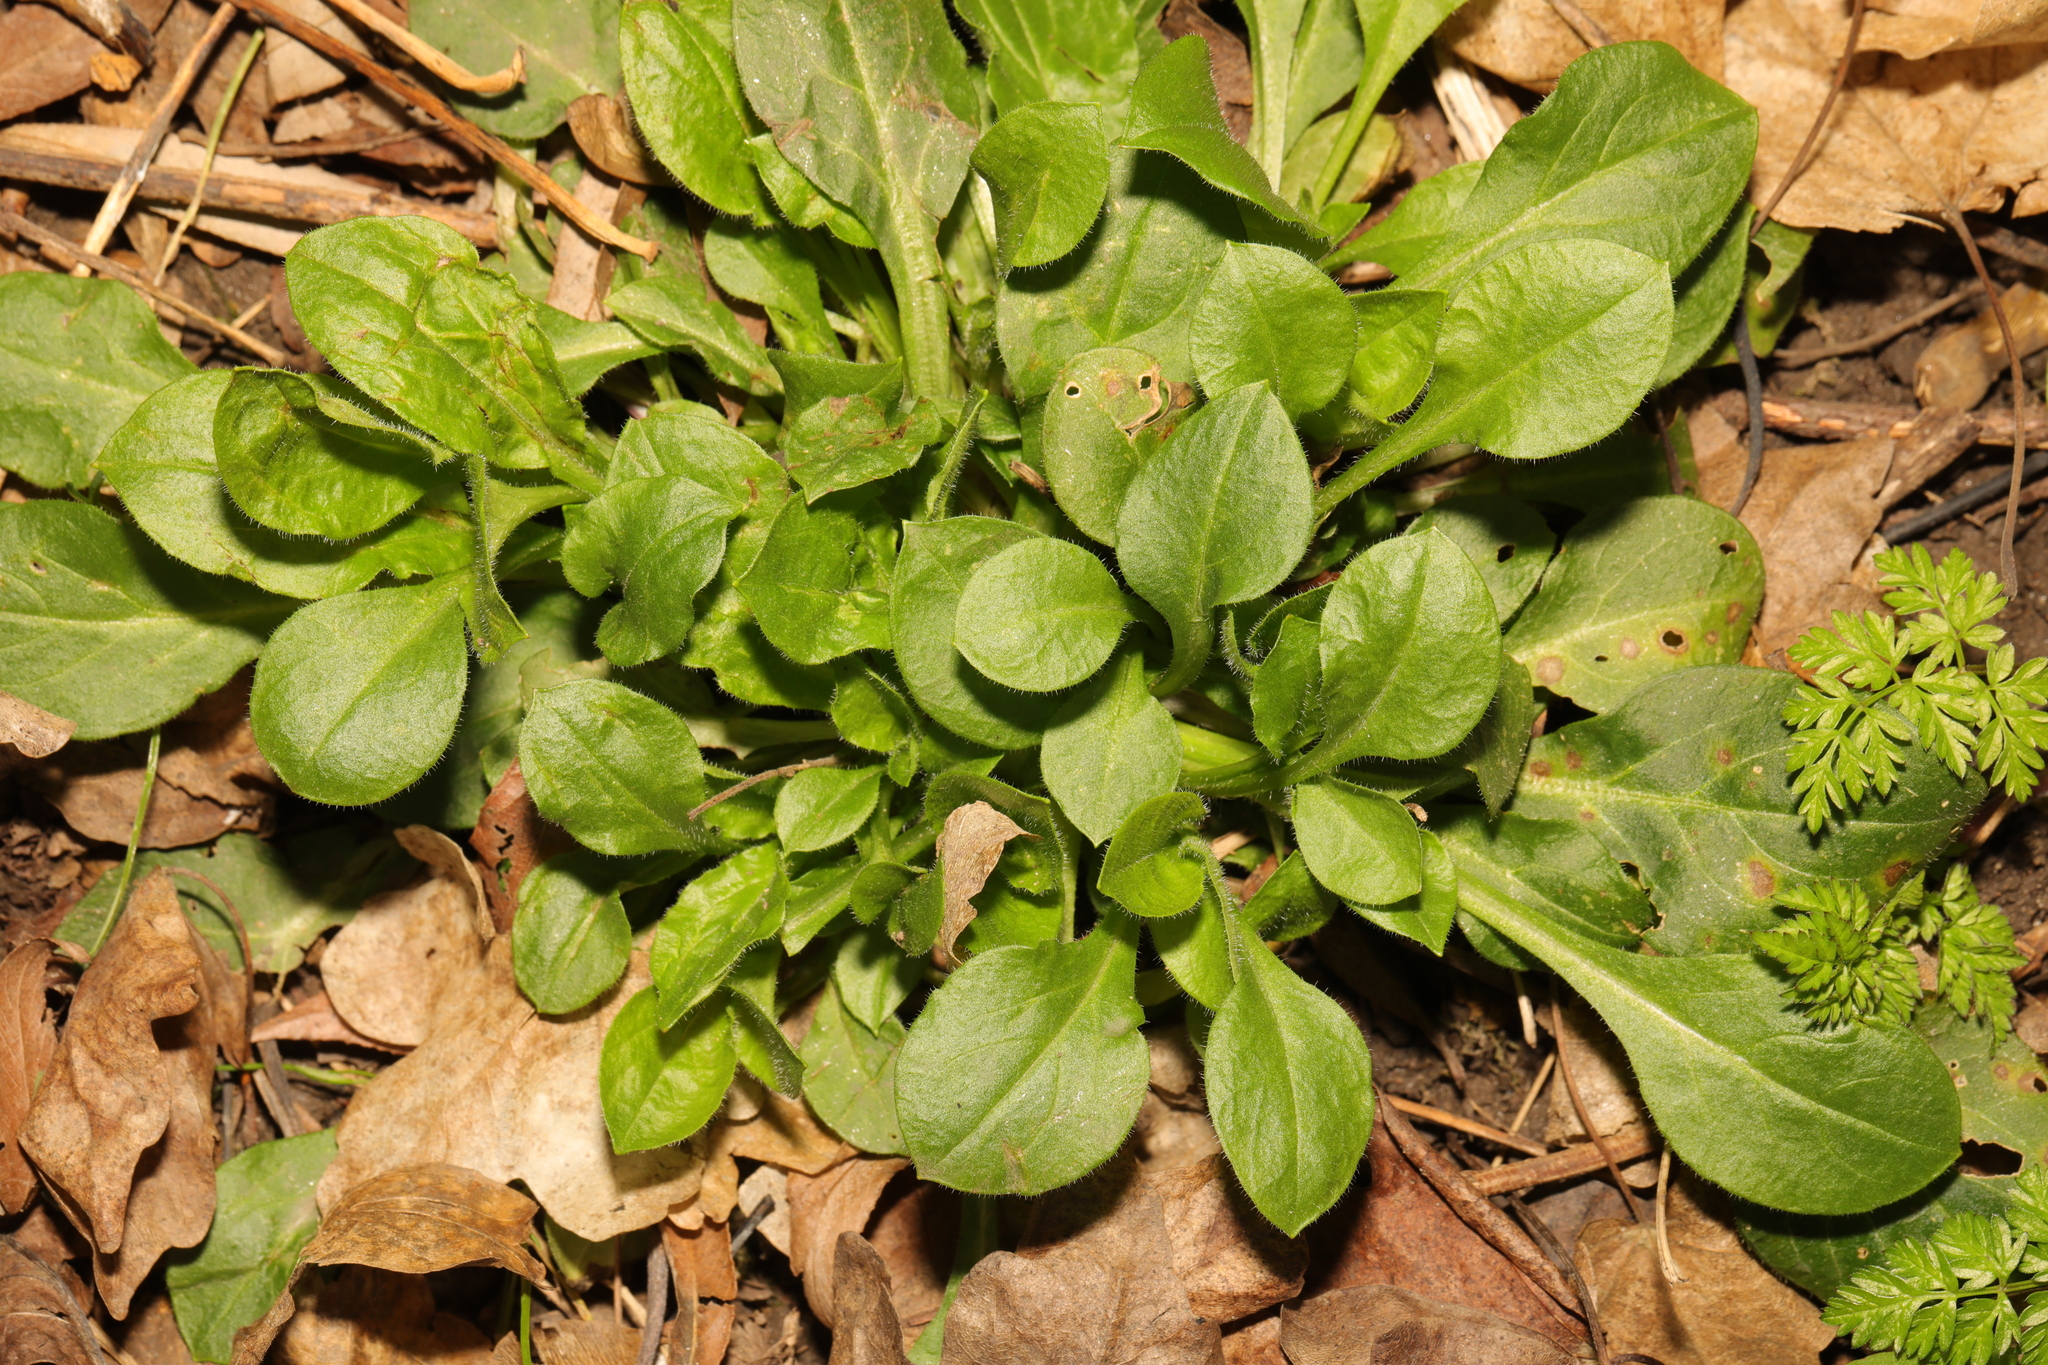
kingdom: Plantae
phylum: Tracheophyta
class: Magnoliopsida
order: Caryophyllales
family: Caryophyllaceae
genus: Silene
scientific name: Silene dioica
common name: Red campion
